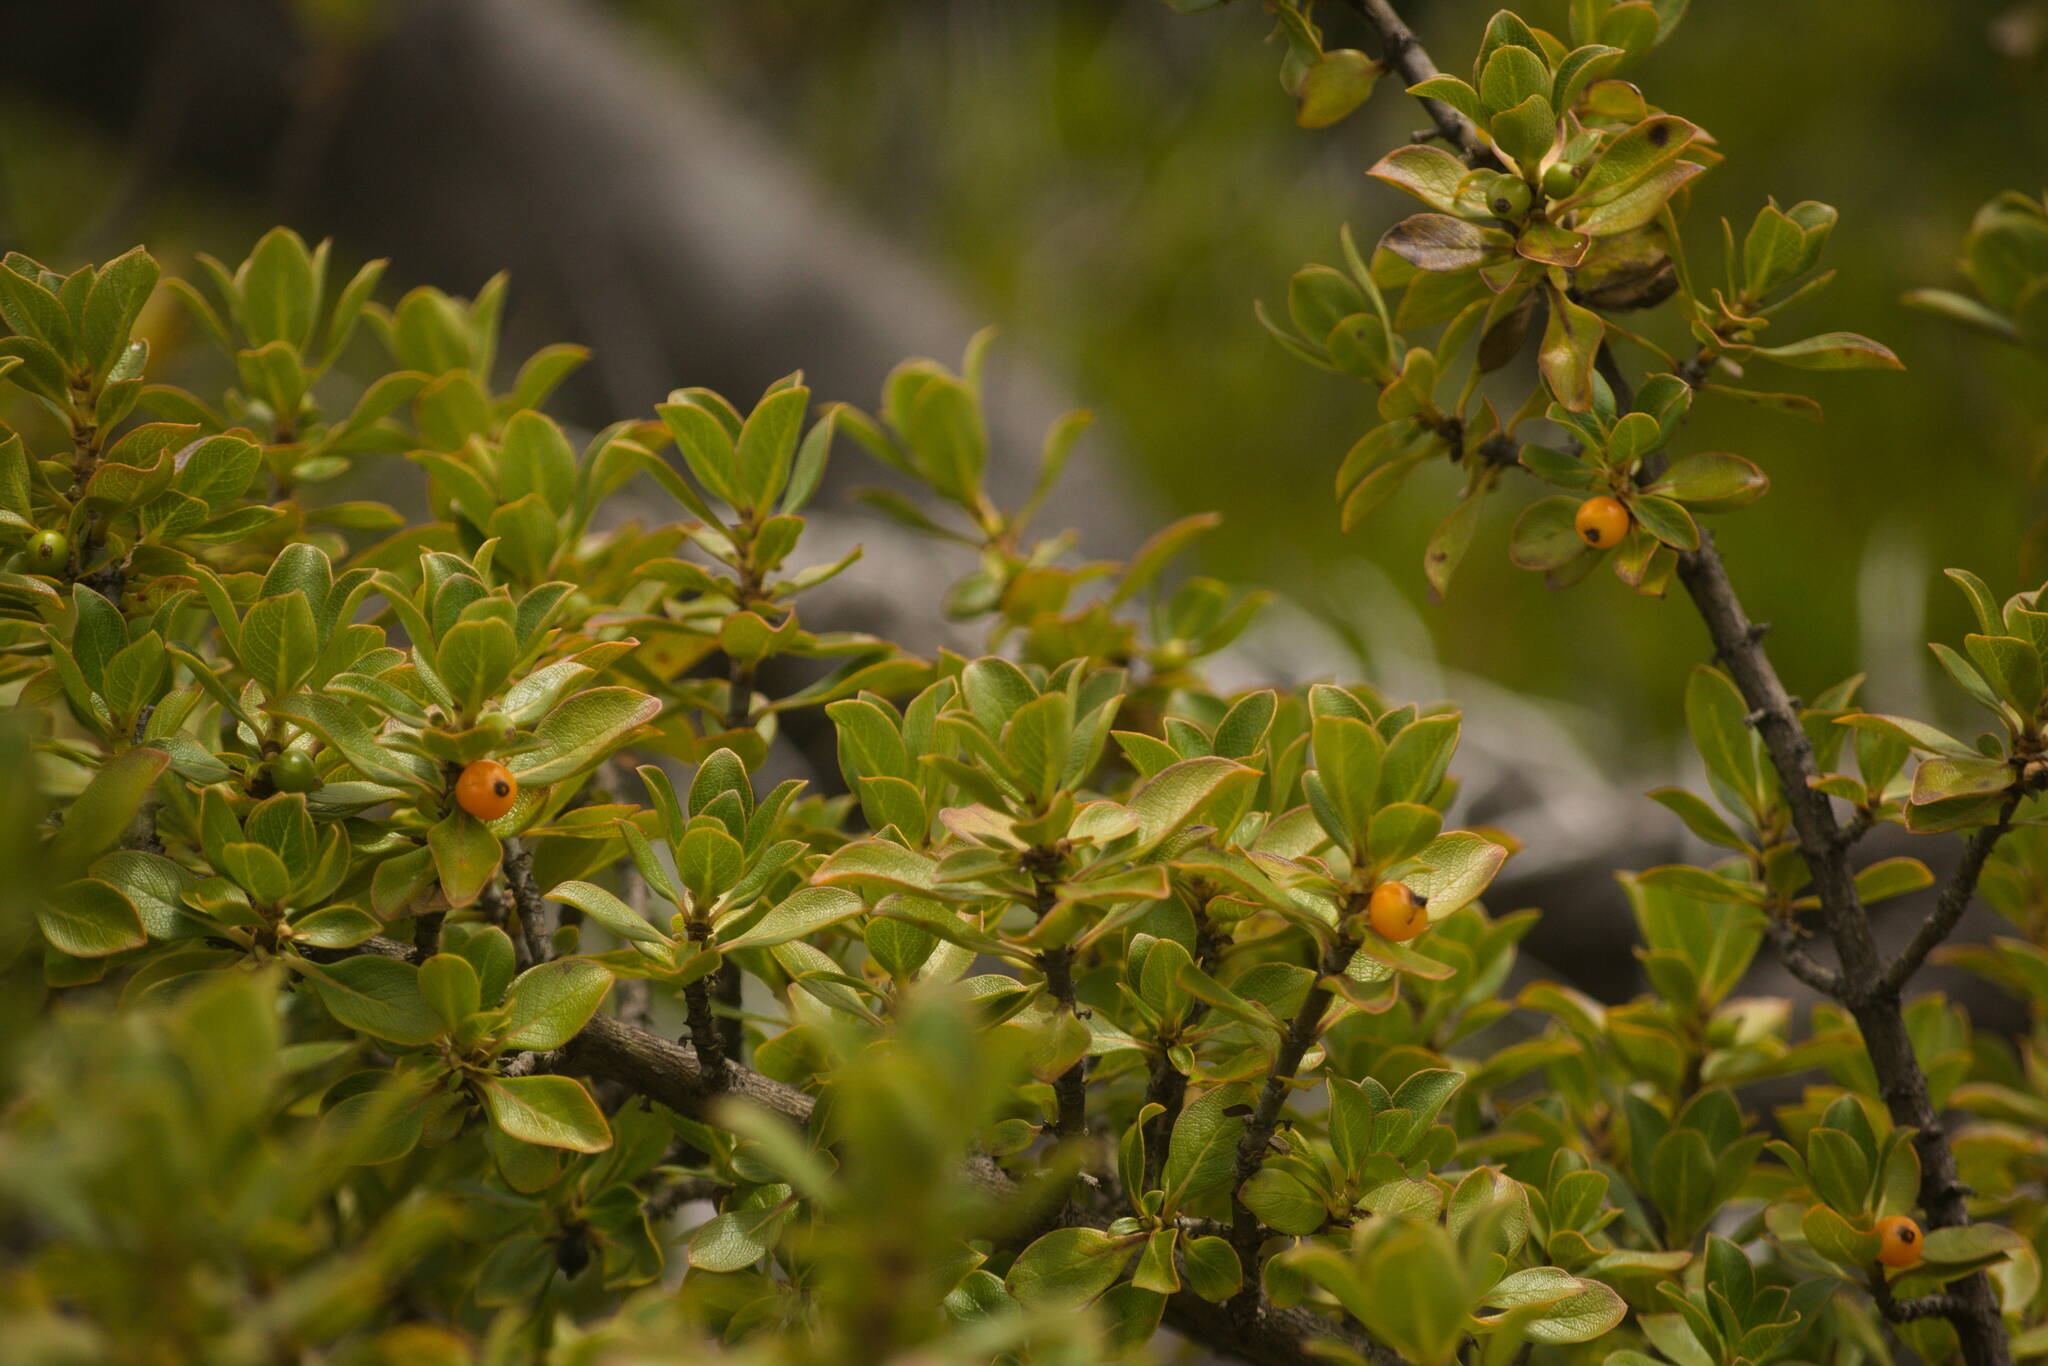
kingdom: Plantae
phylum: Tracheophyta
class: Magnoliopsida
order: Gentianales
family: Rubiaceae
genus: Coprosma
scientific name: Coprosma montana
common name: Alpine mirror plant
